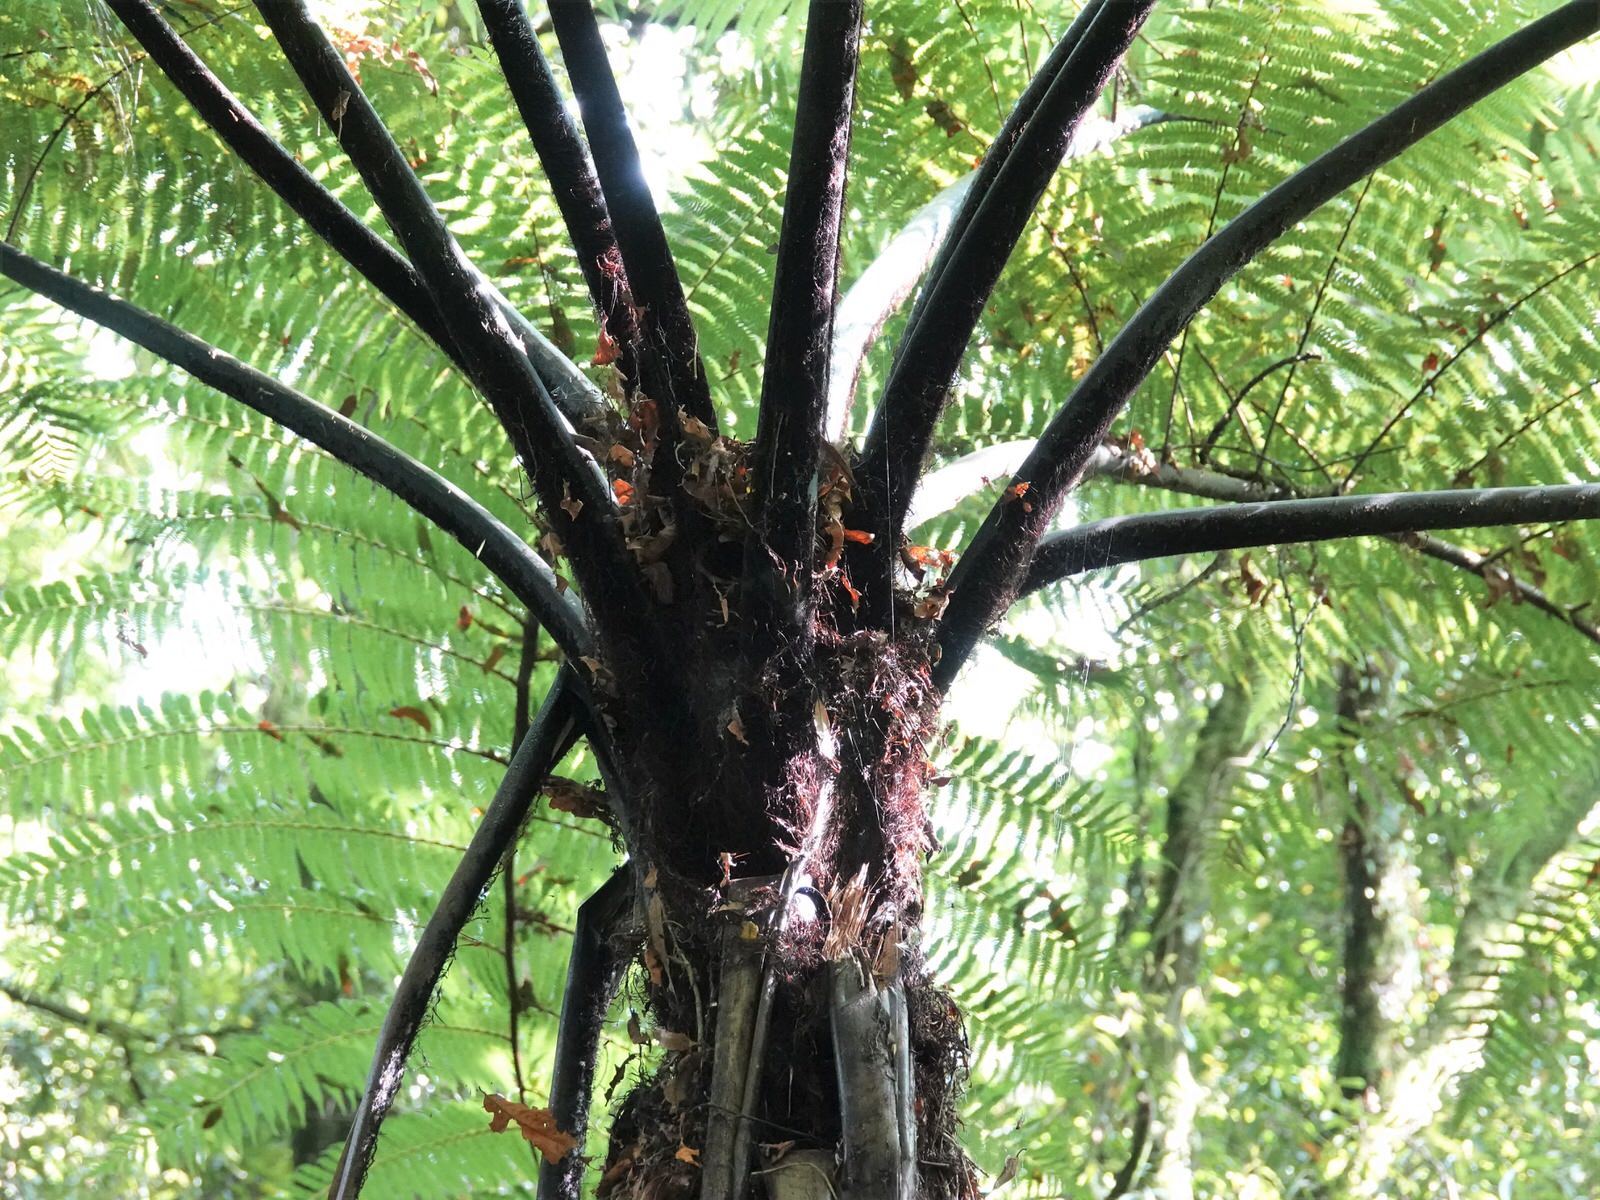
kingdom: Plantae
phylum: Tracheophyta
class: Polypodiopsida
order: Cyatheales
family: Cyatheaceae
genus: Sphaeropteris
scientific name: Sphaeropteris medullaris
